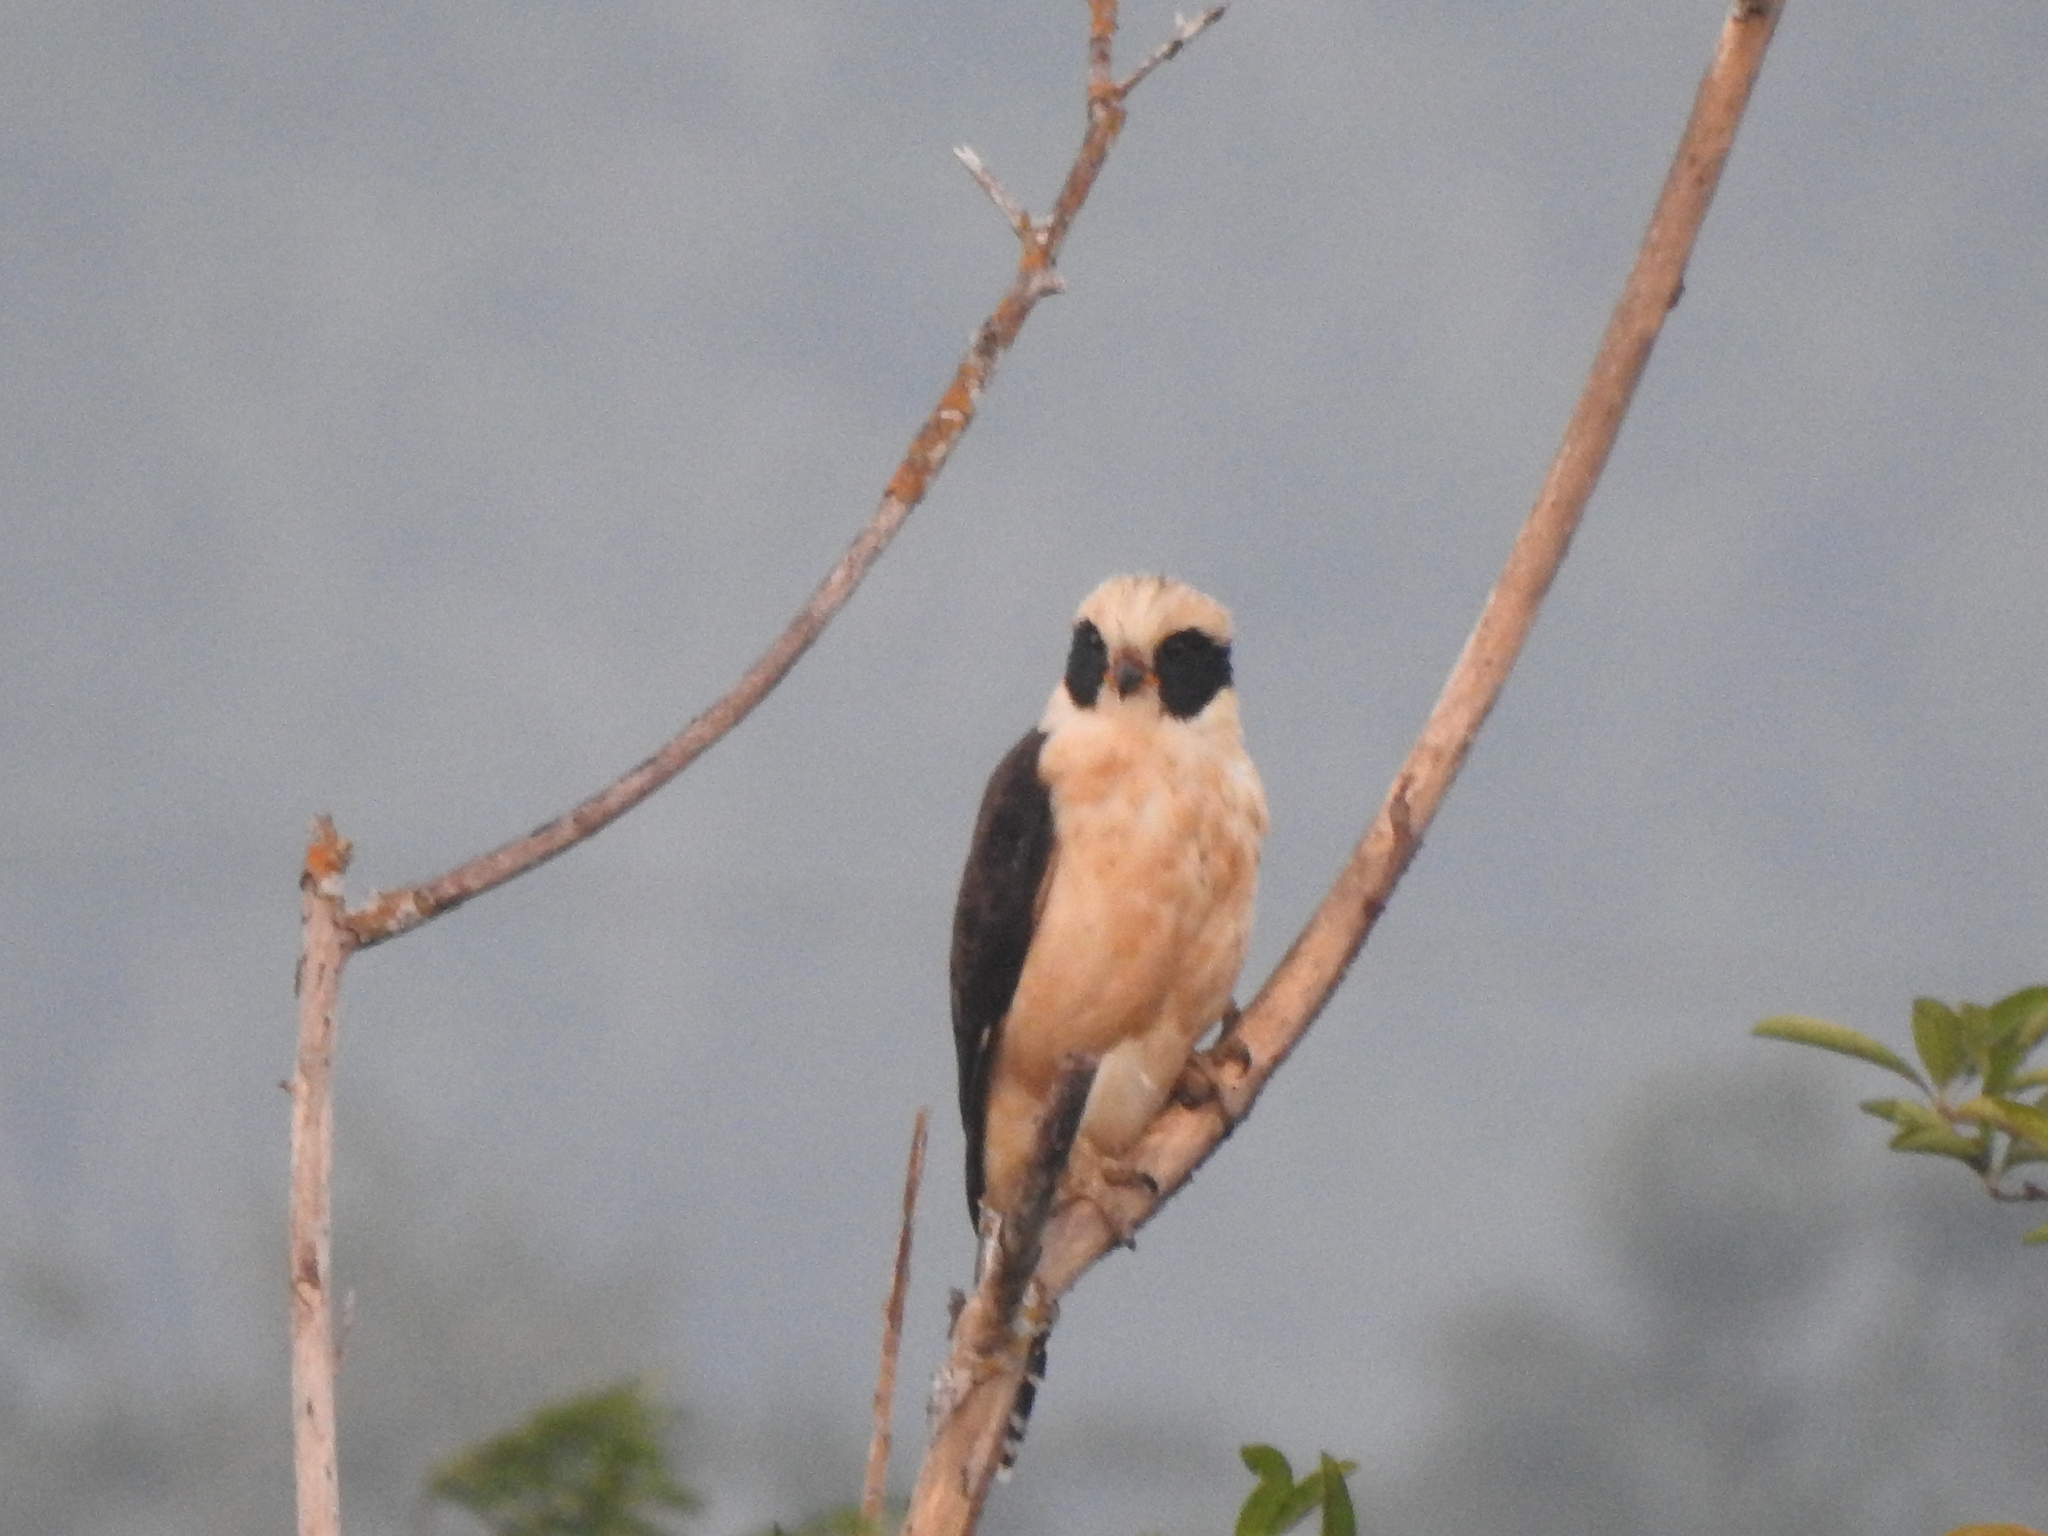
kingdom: Animalia
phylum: Chordata
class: Aves
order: Falconiformes
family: Falconidae
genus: Herpetotheres
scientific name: Herpetotheres cachinnans
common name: Laughing falcon
